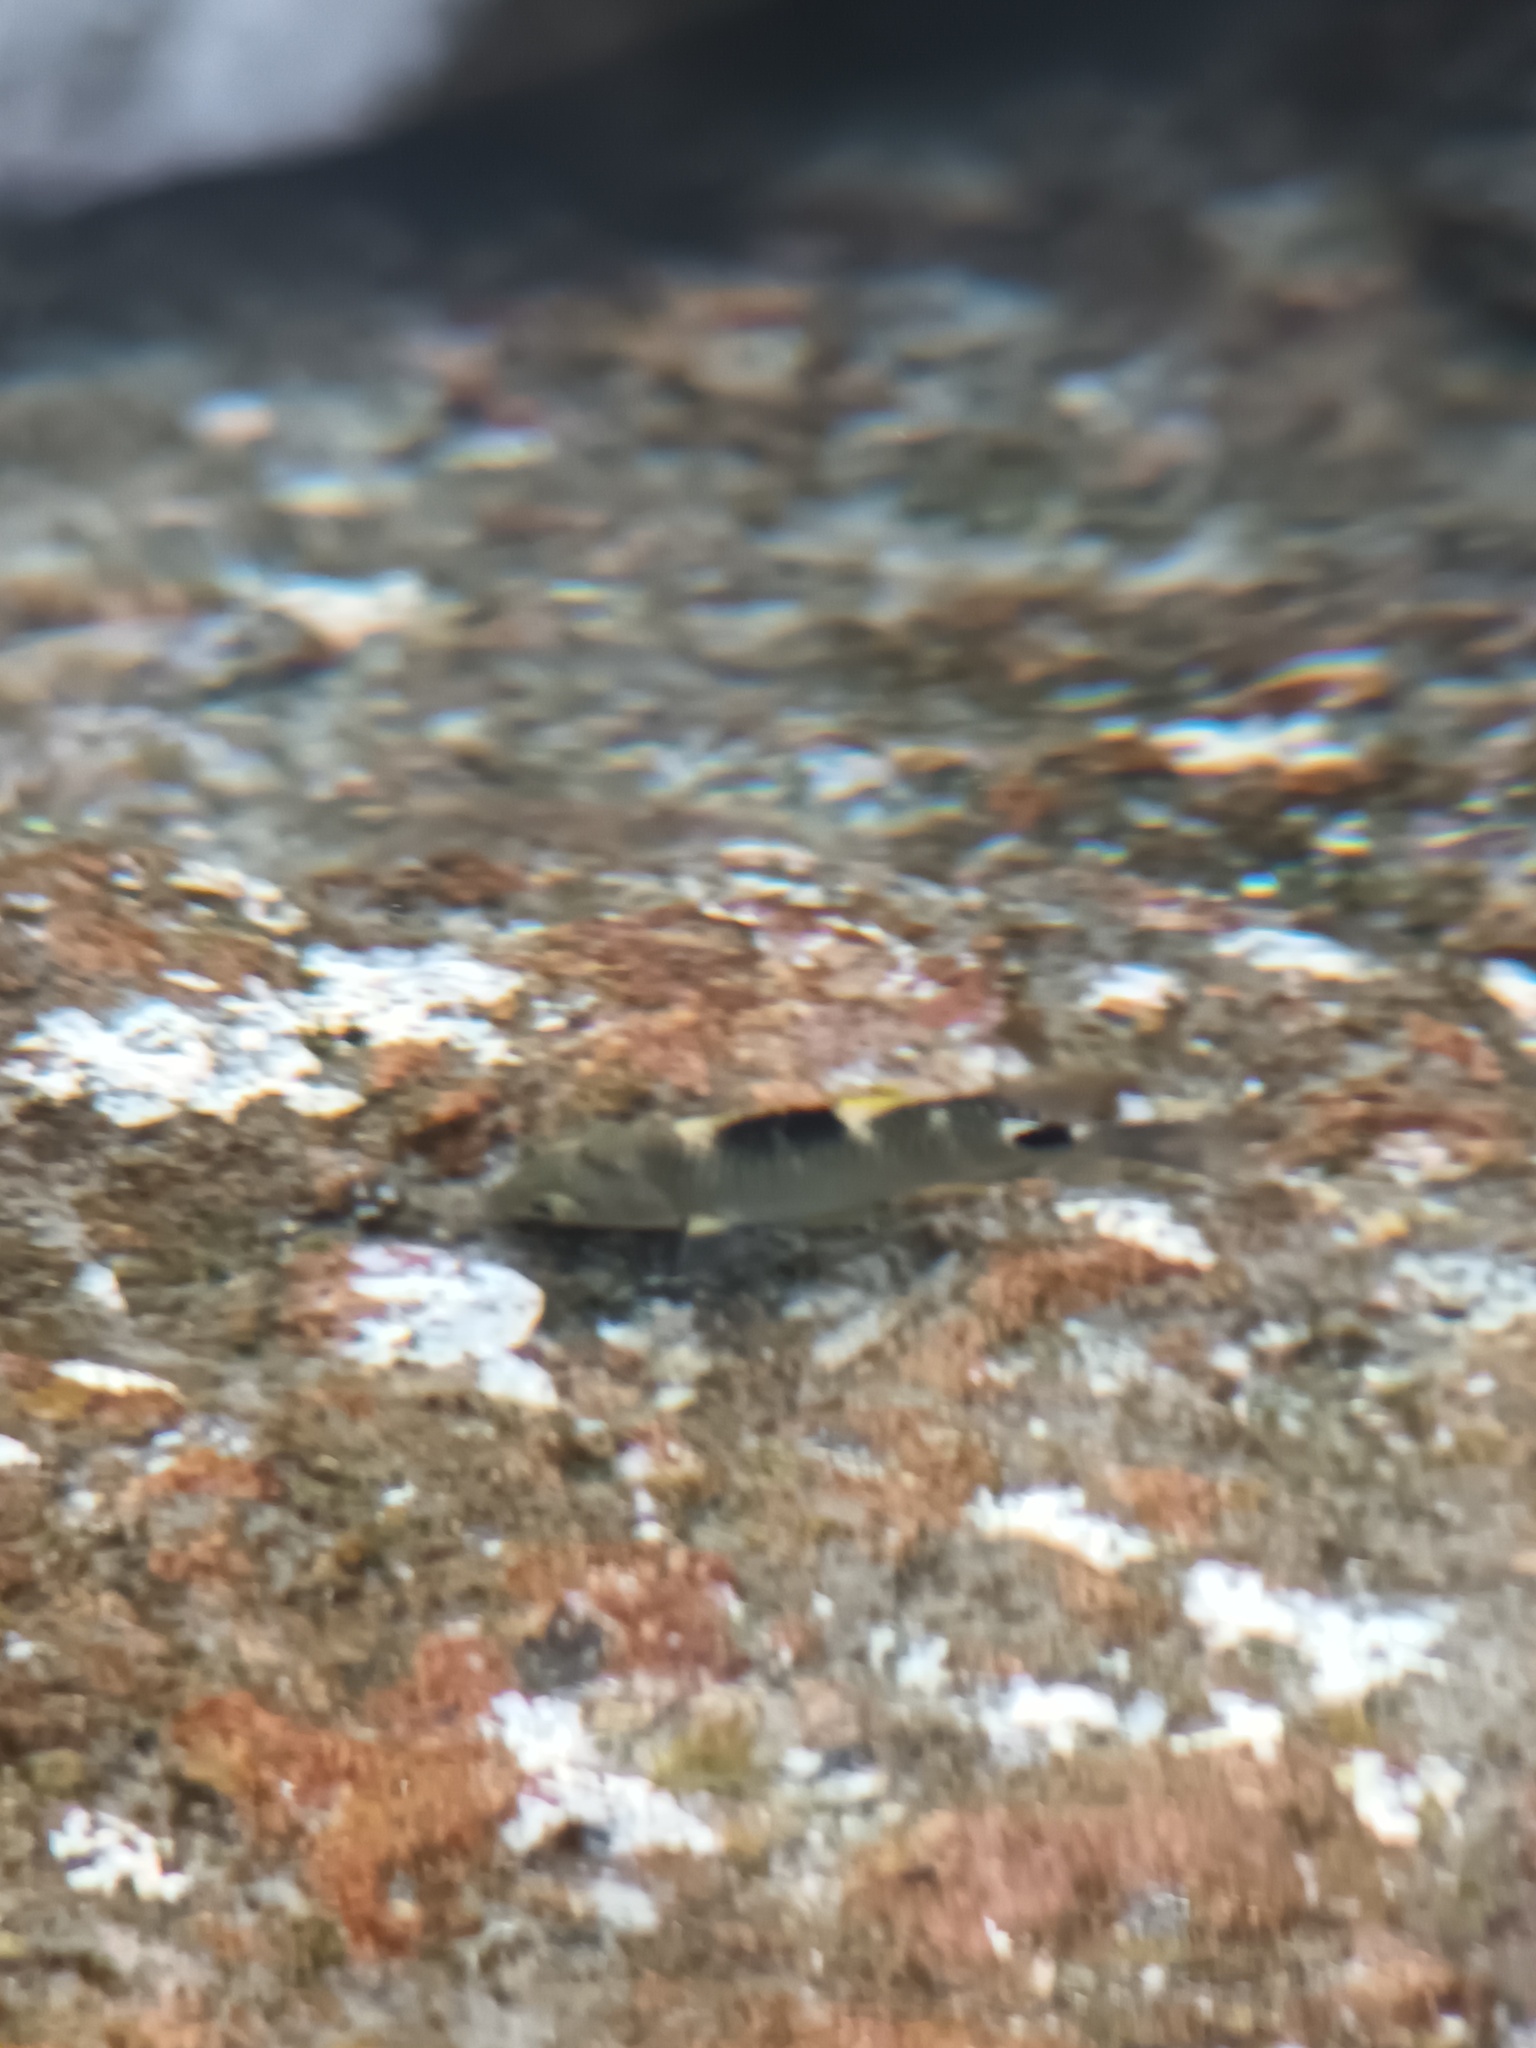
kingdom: Animalia
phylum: Chordata
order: Perciformes
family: Pomacentridae
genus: Abudefduf
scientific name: Abudefduf sordidus
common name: Blackspot sergeant
